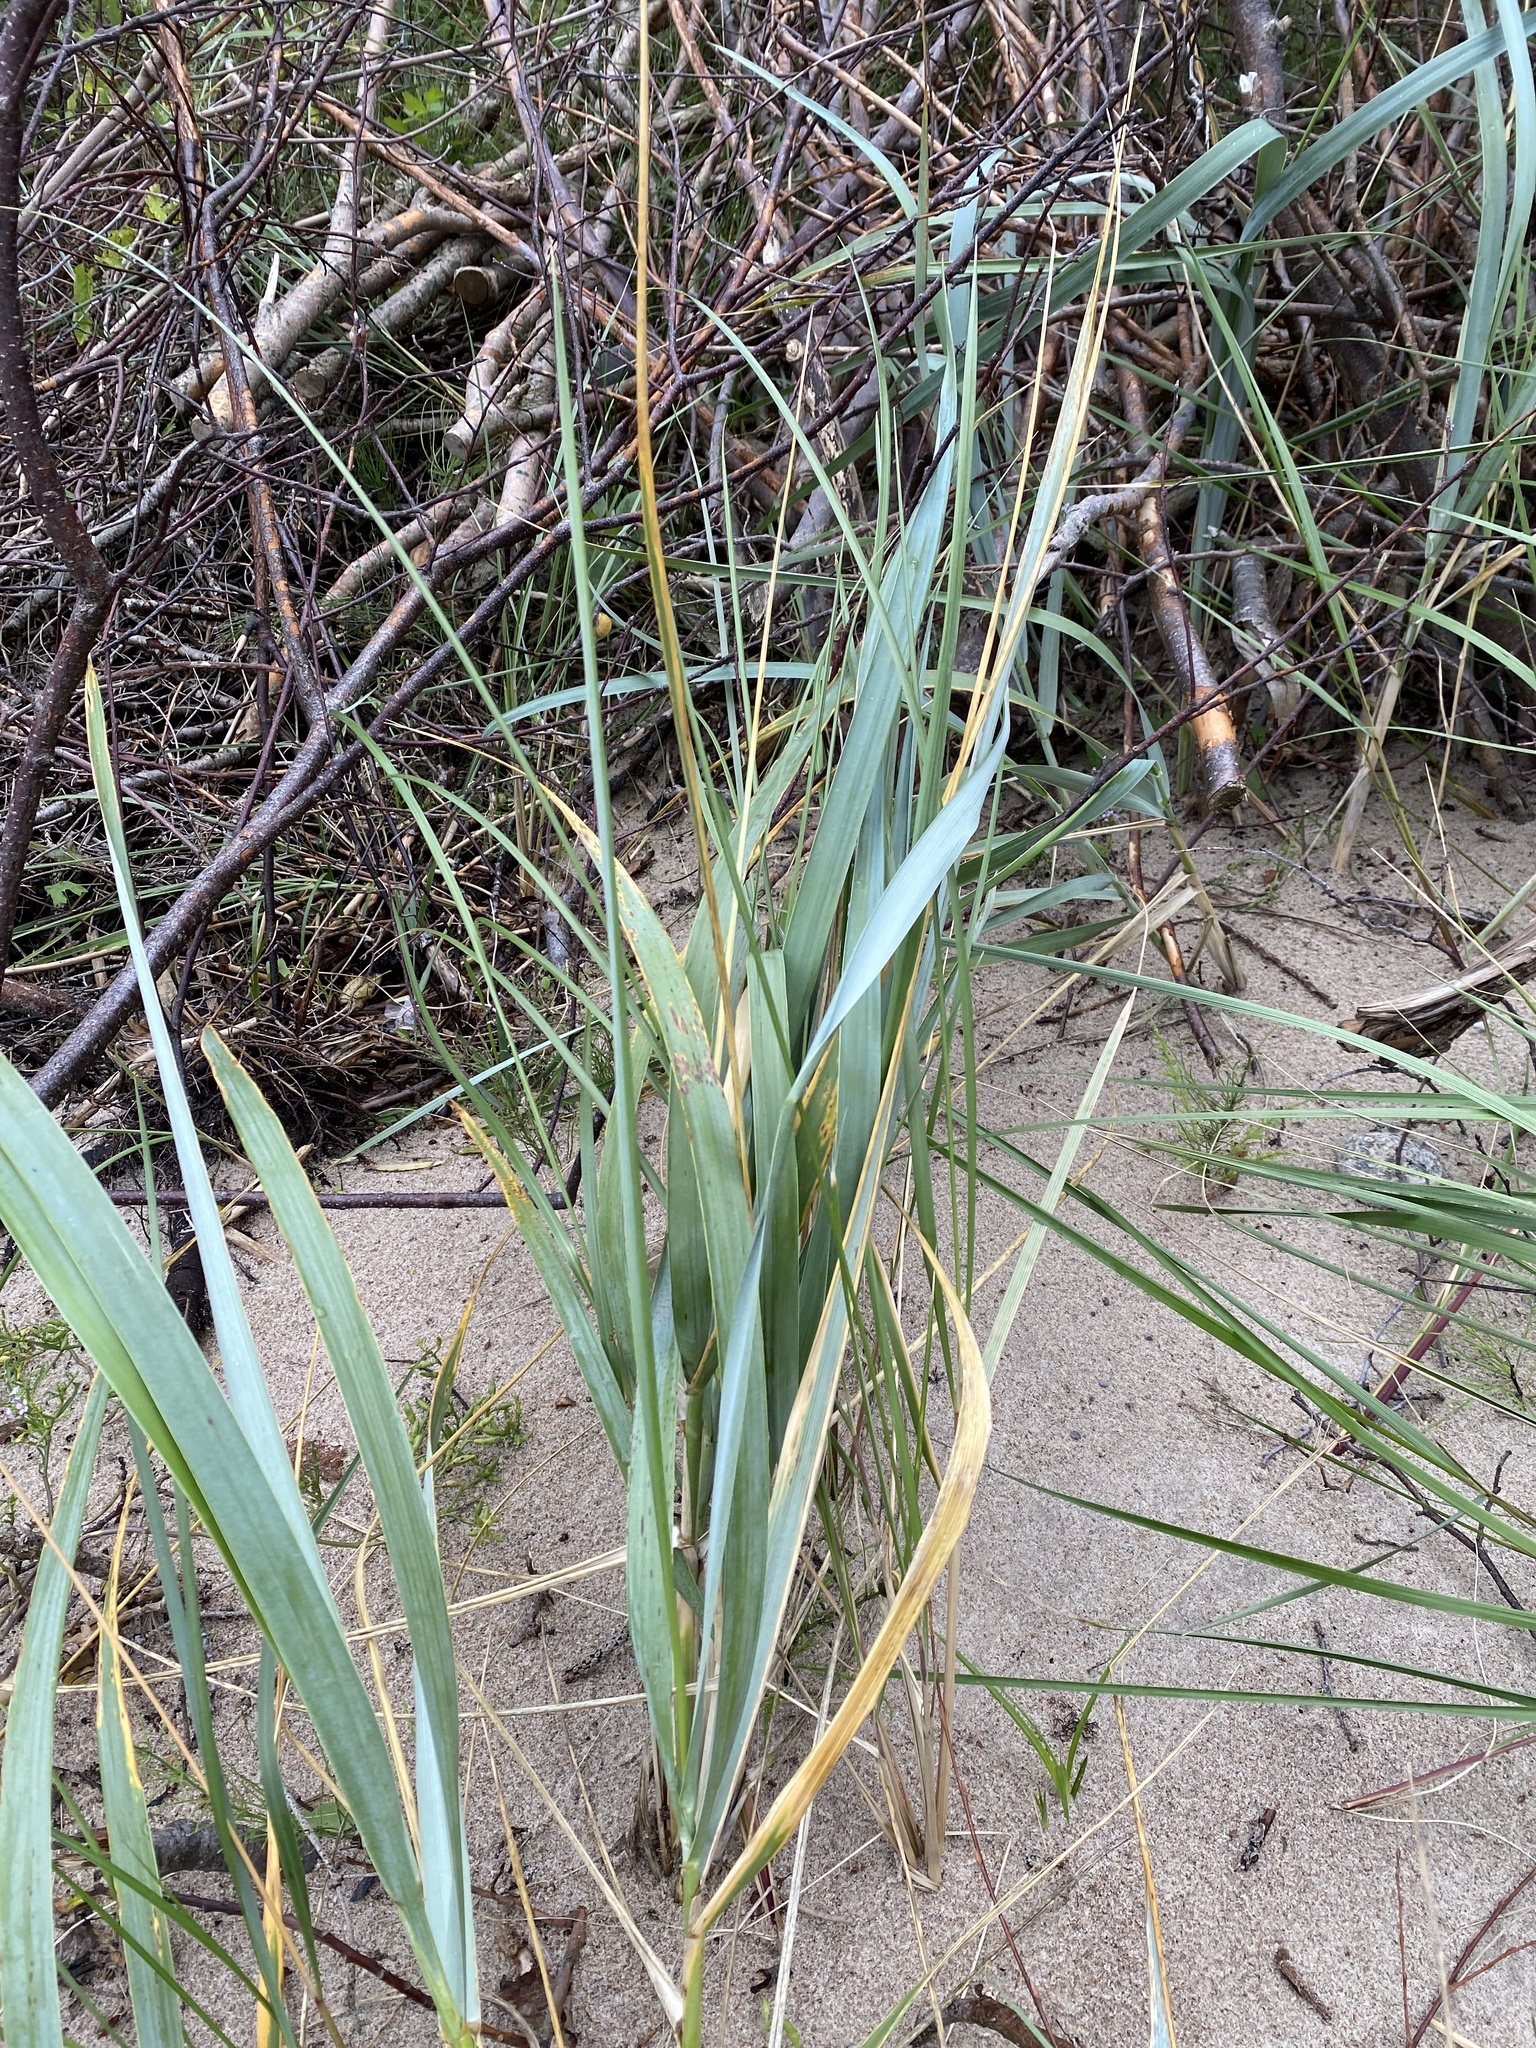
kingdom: Plantae
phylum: Tracheophyta
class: Liliopsida
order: Poales
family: Poaceae
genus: Leymus
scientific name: Leymus arenarius
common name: Lyme-grass
